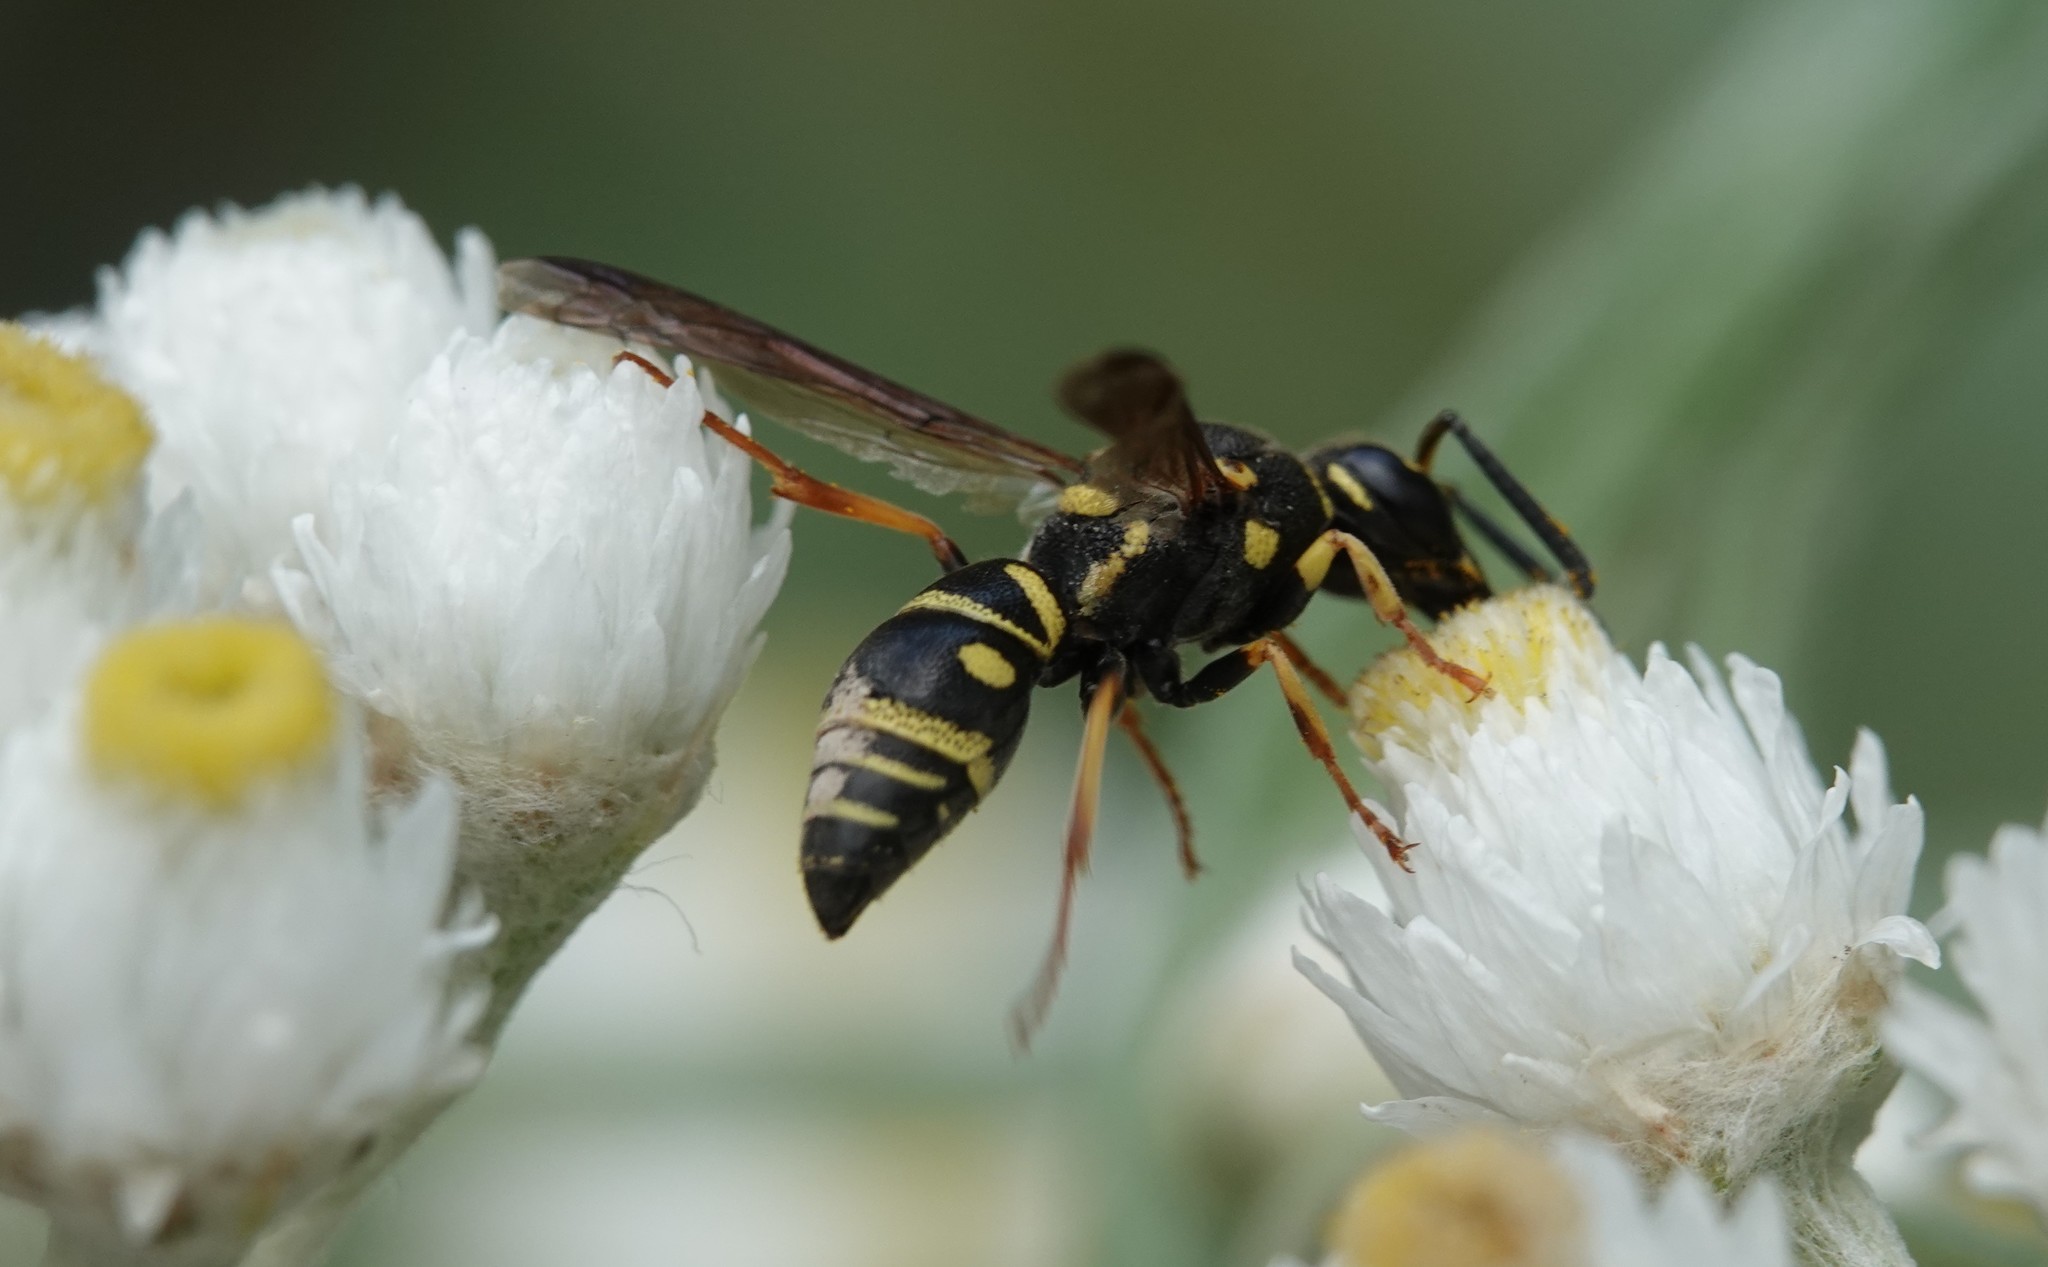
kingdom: Animalia
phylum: Arthropoda
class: Insecta
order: Hymenoptera
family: Eumenidae
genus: Parancistrocerus
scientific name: Parancistrocerus leionotus
